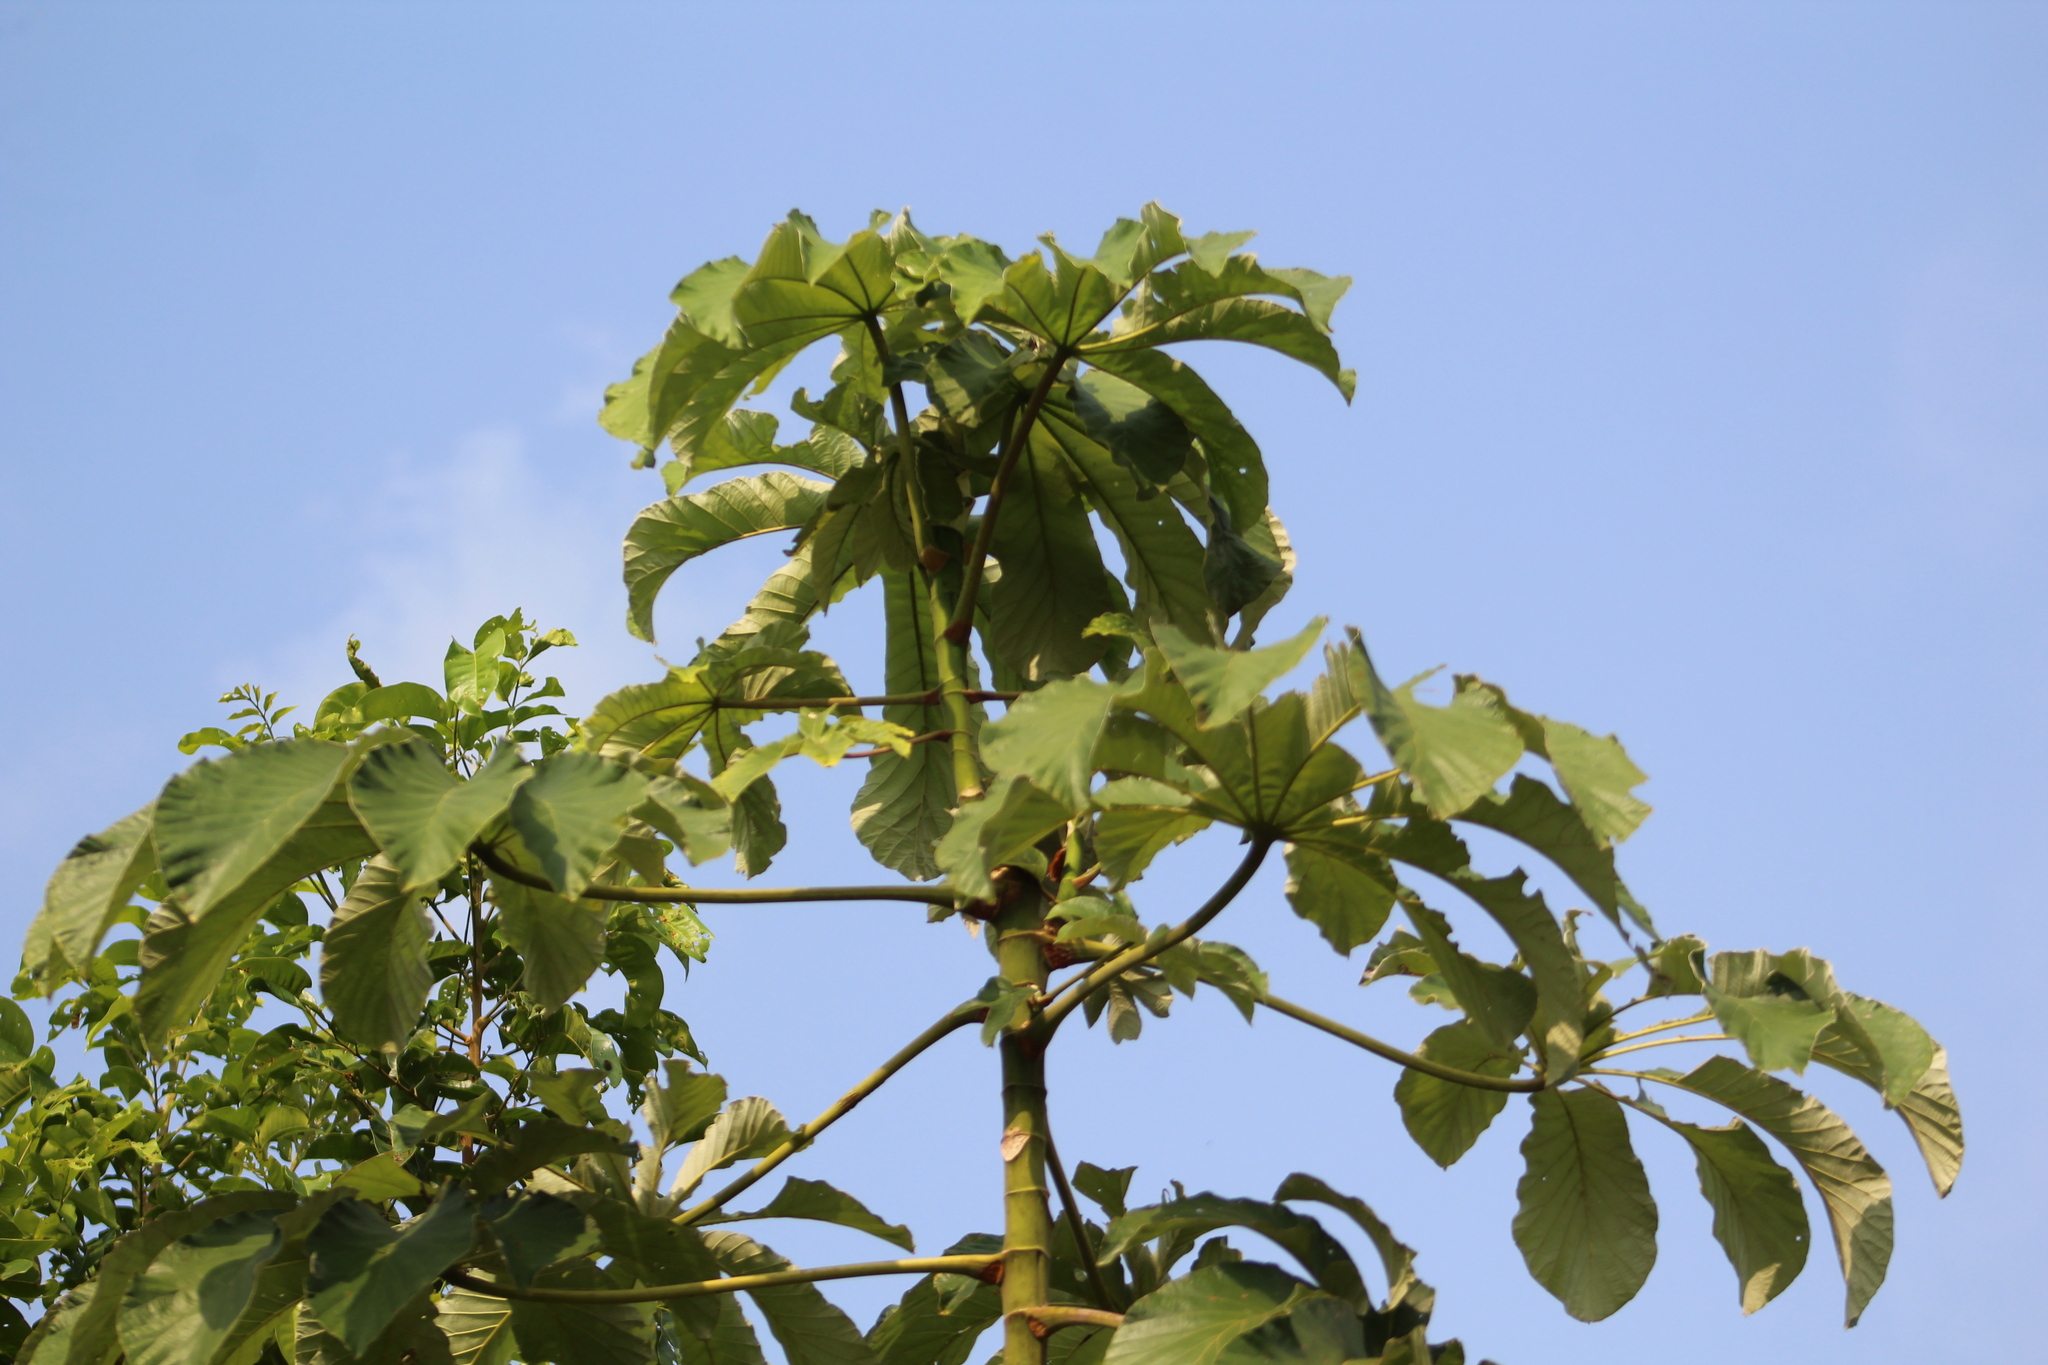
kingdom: Plantae
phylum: Tracheophyta
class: Magnoliopsida
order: Rosales
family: Urticaceae
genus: Cecropia
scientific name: Cecropia litoralis
